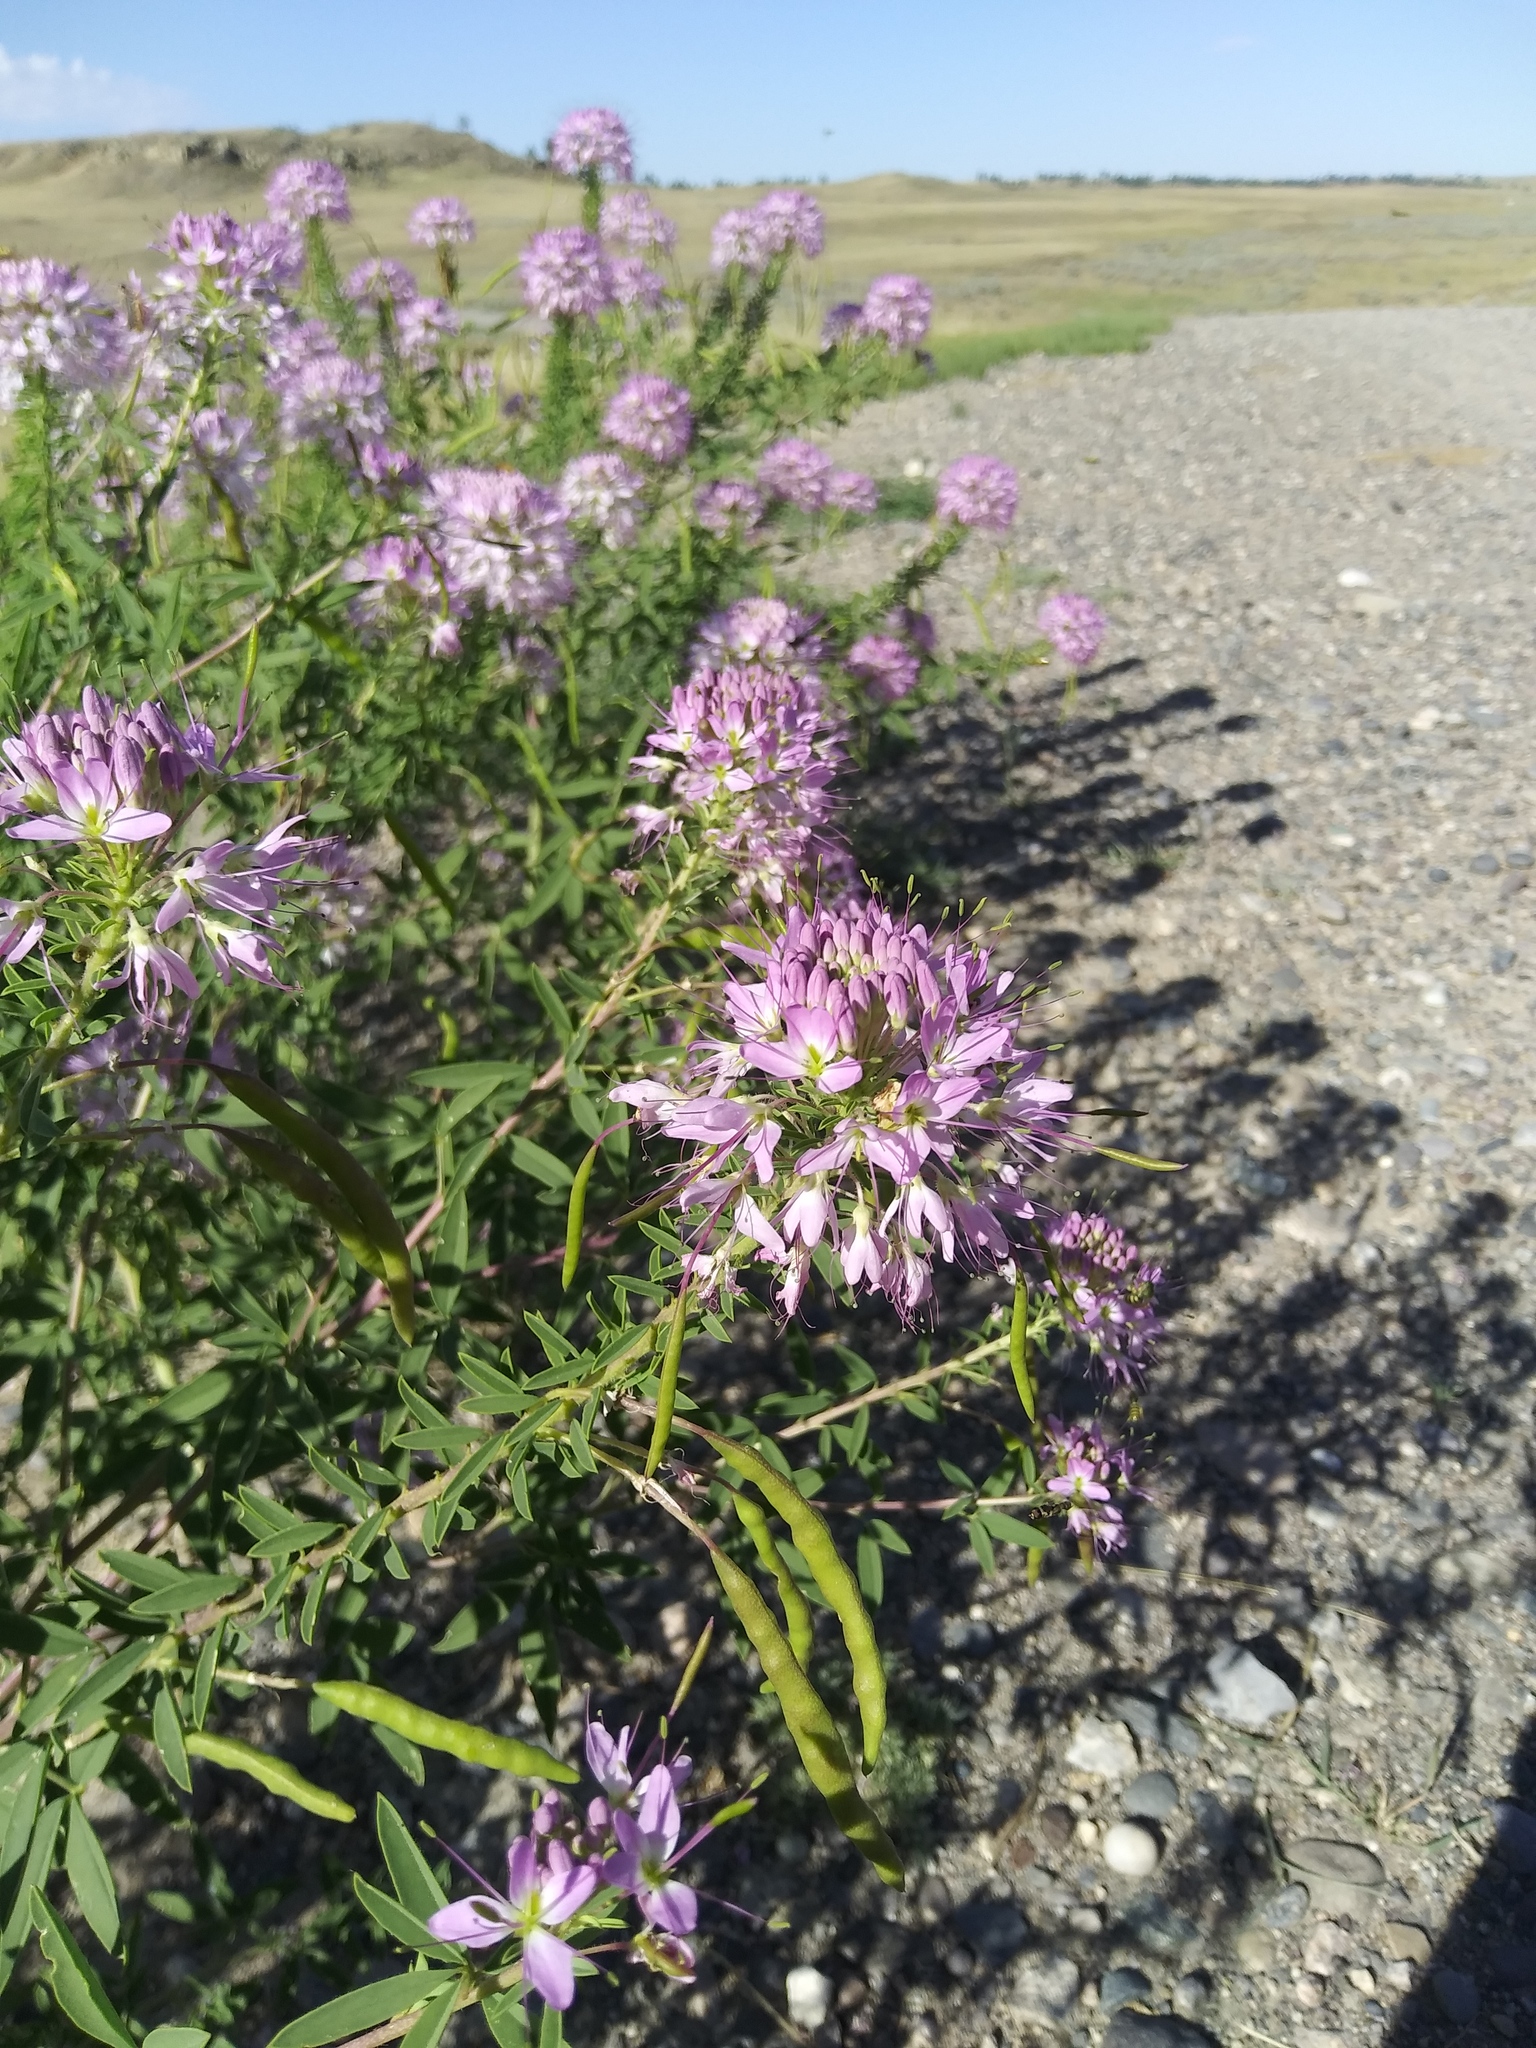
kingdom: Plantae
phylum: Tracheophyta
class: Magnoliopsida
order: Brassicales
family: Cleomaceae
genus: Cleomella
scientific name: Cleomella serrulata
